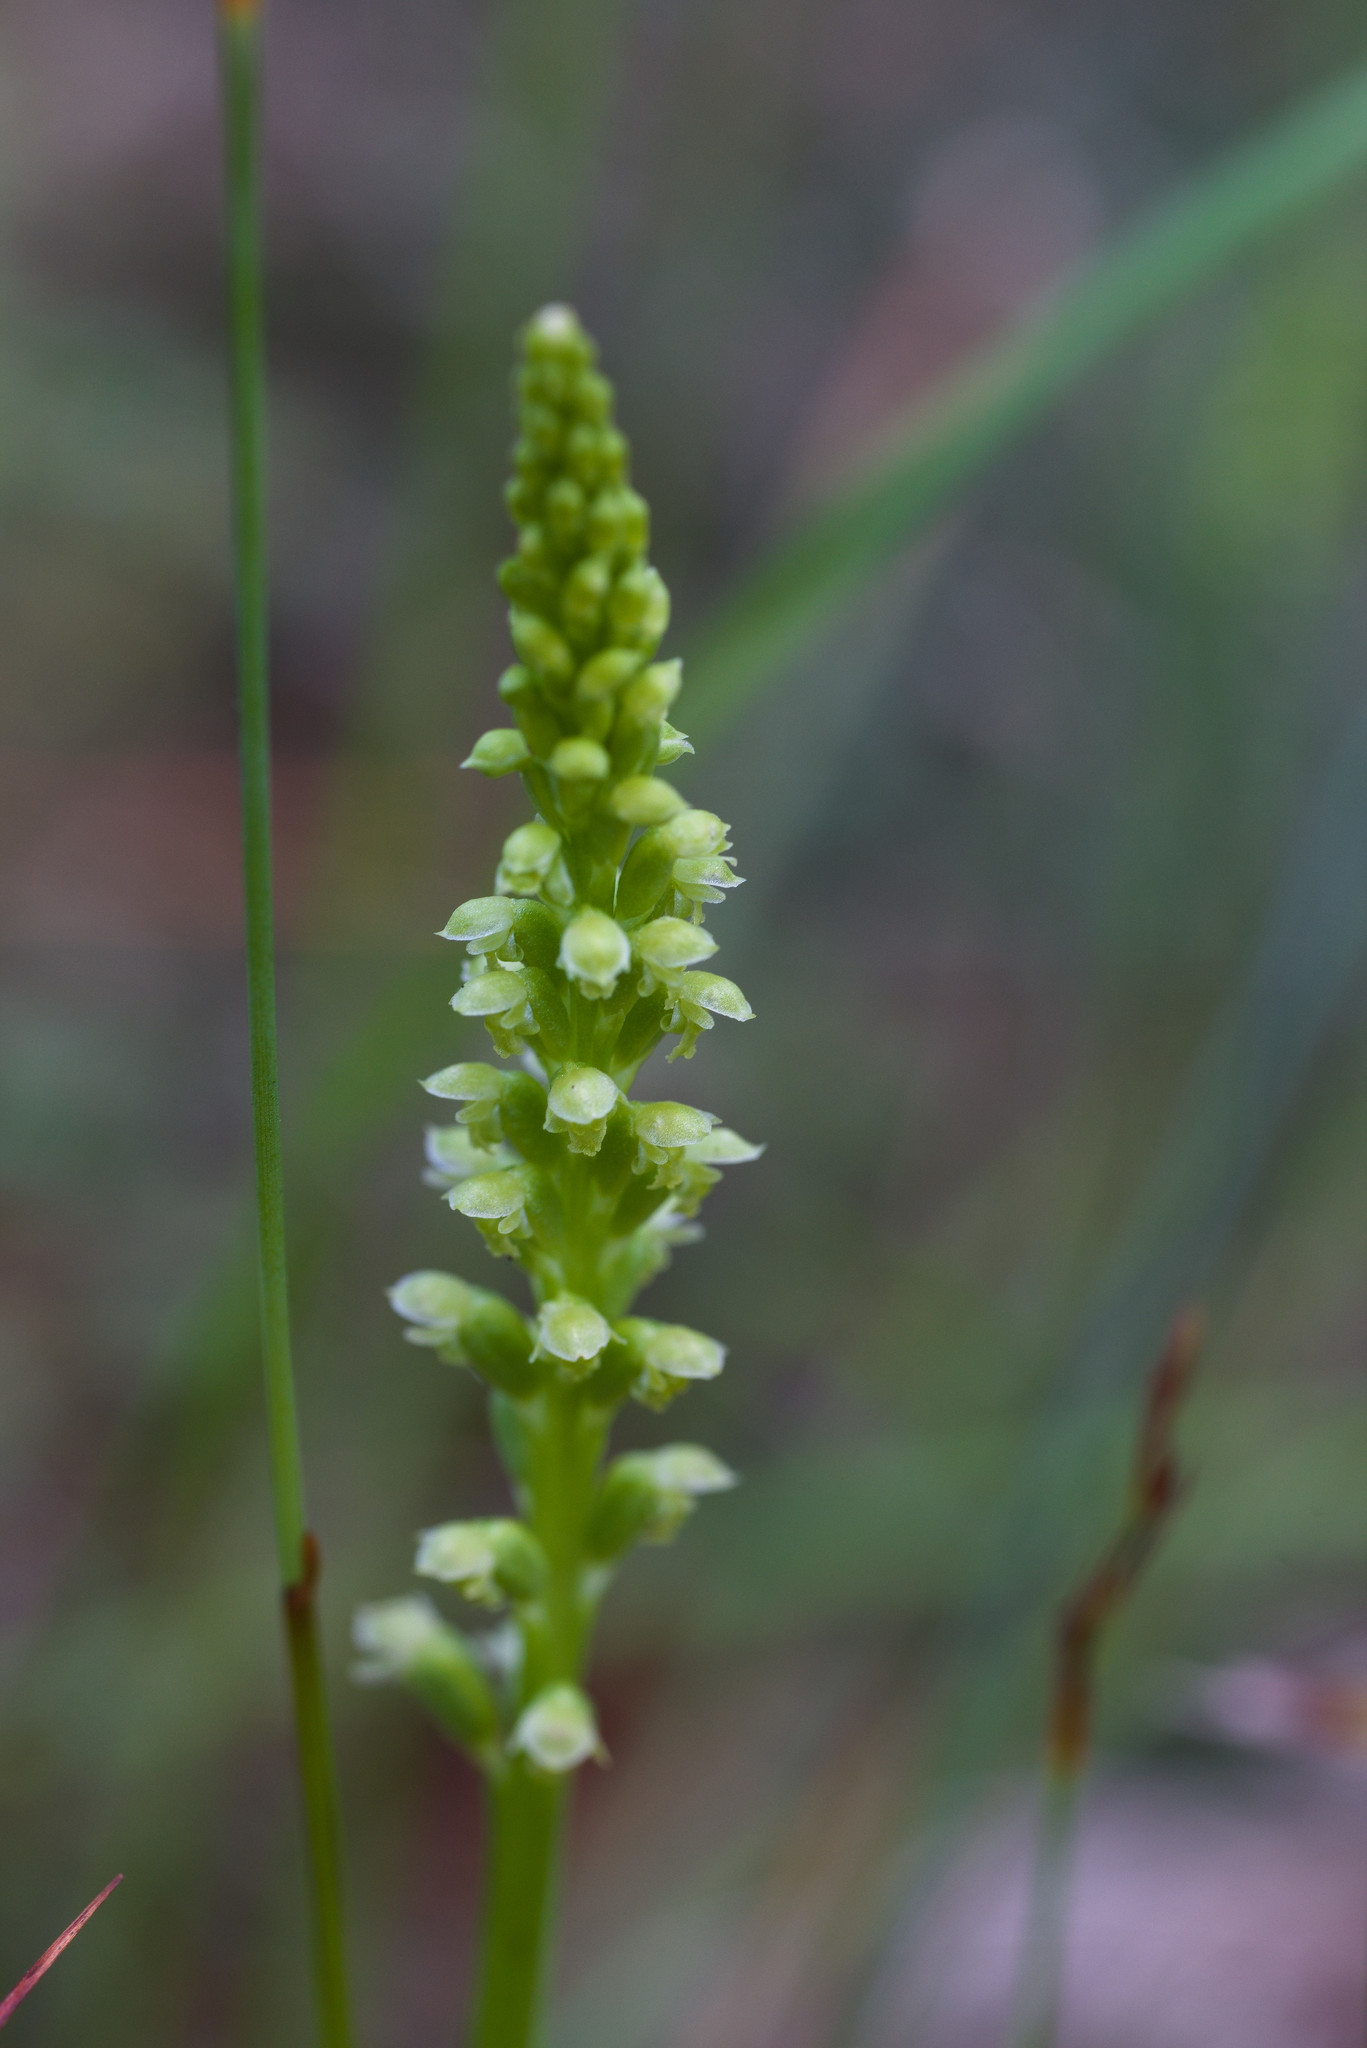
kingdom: Plantae
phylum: Tracheophyta
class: Liliopsida
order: Asparagales
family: Orchidaceae
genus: Microtis
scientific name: Microtis media
